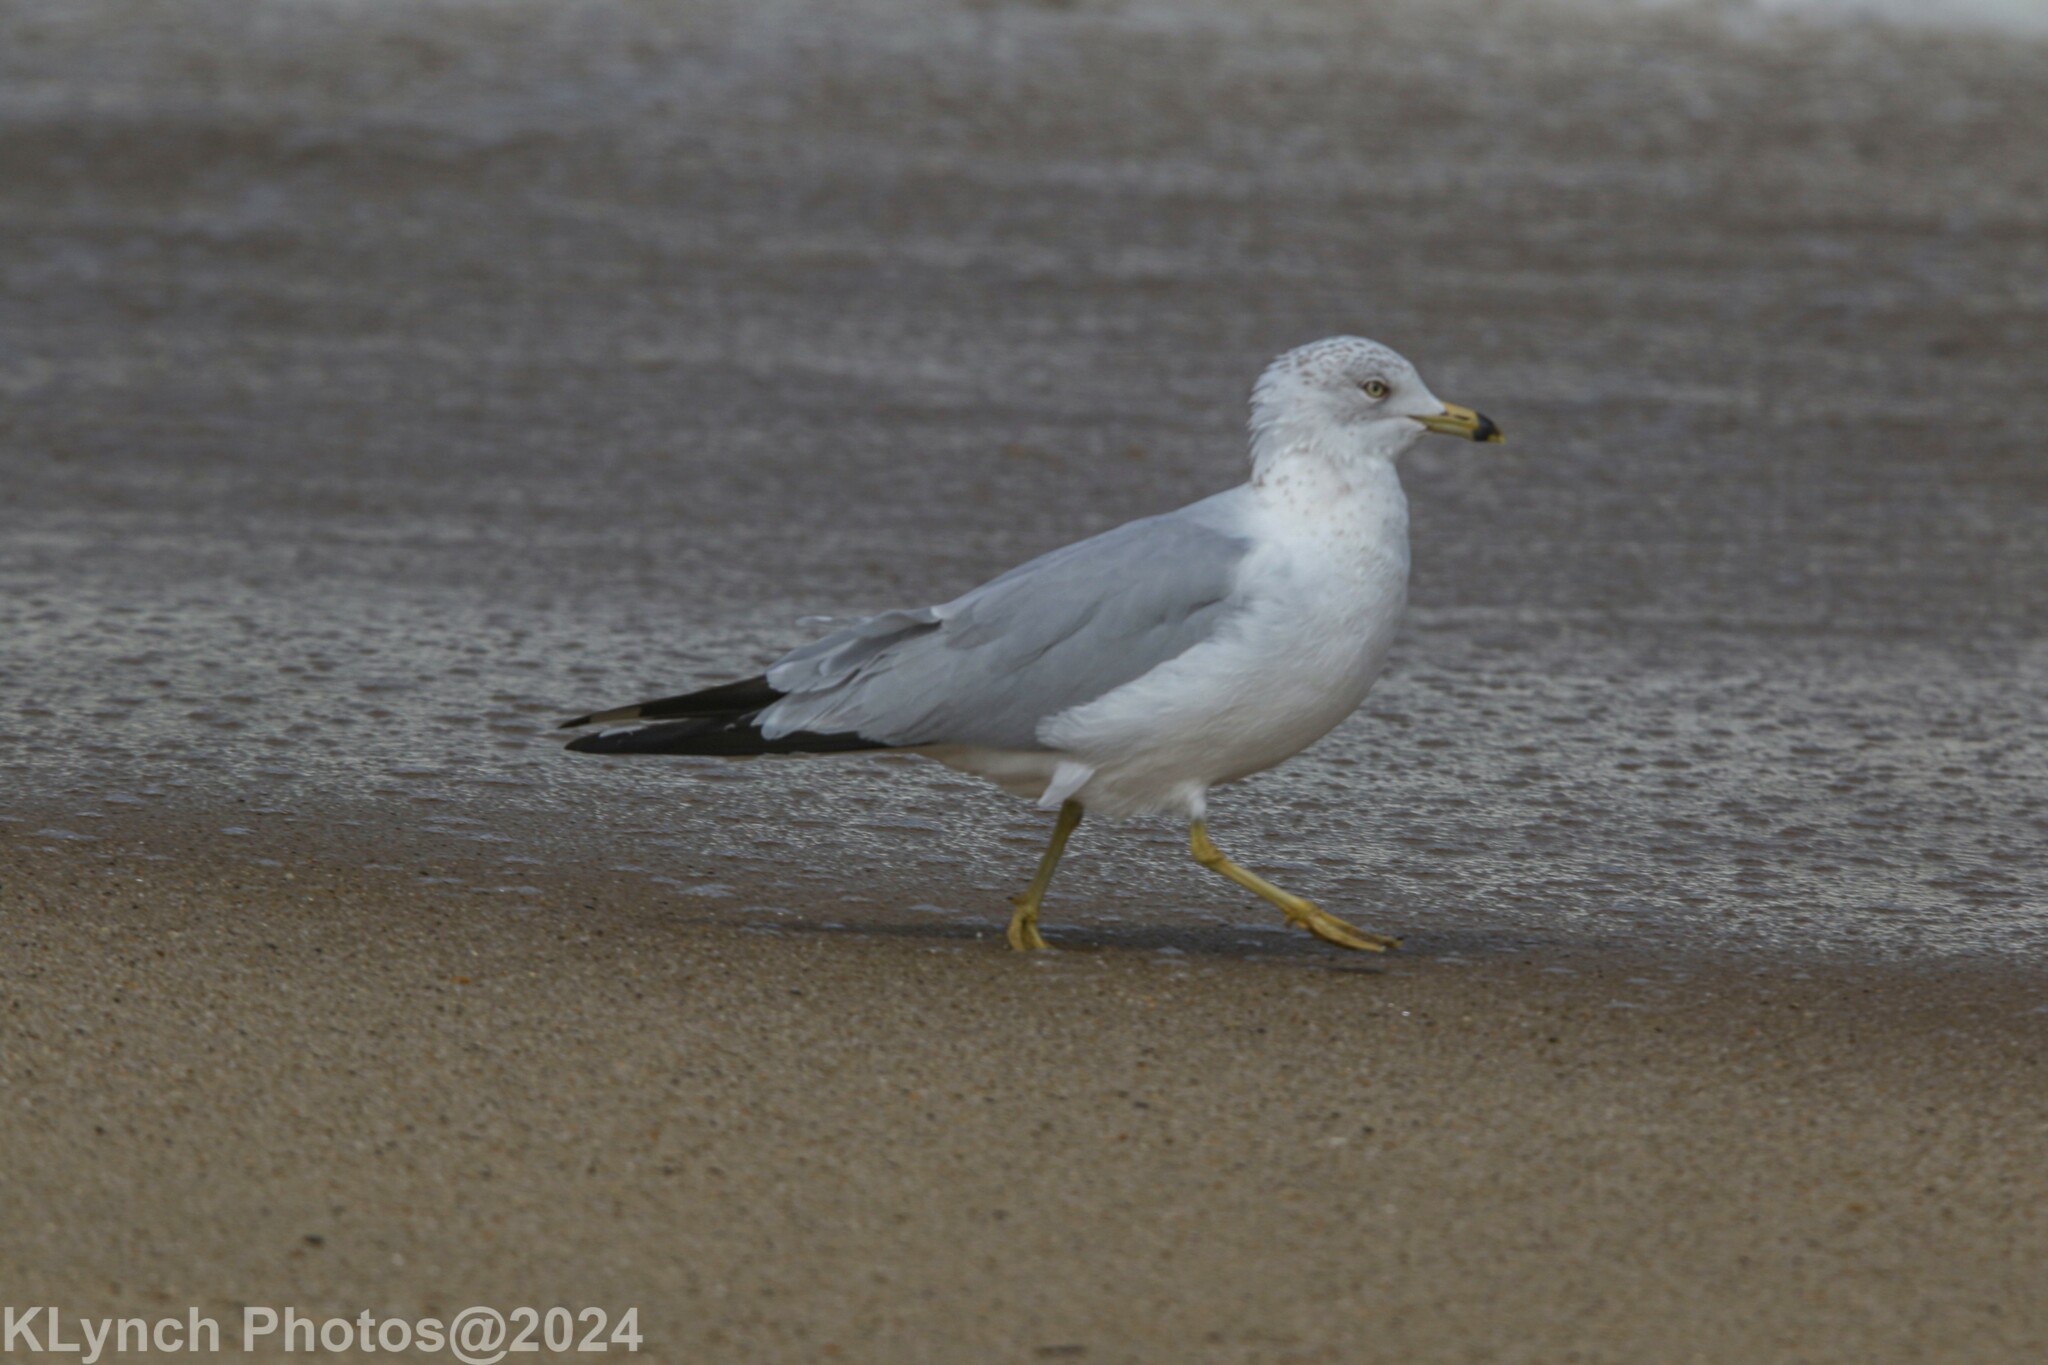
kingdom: Animalia
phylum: Chordata
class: Aves
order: Charadriiformes
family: Laridae
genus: Larus
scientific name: Larus delawarensis
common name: Ring-billed gull
